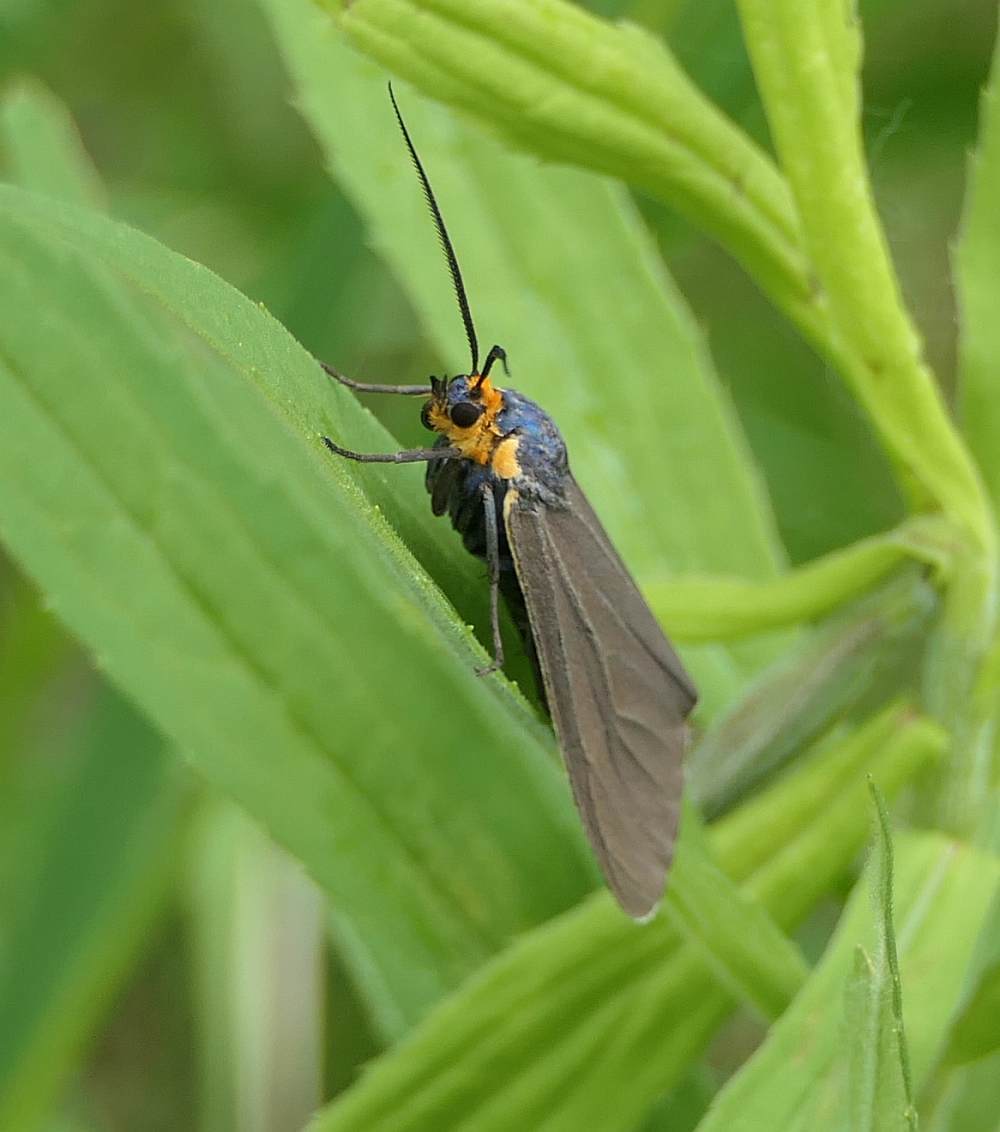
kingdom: Animalia
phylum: Arthropoda
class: Insecta
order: Lepidoptera
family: Erebidae
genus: Ctenucha
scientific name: Ctenucha virginica
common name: Virginia ctenucha moth
